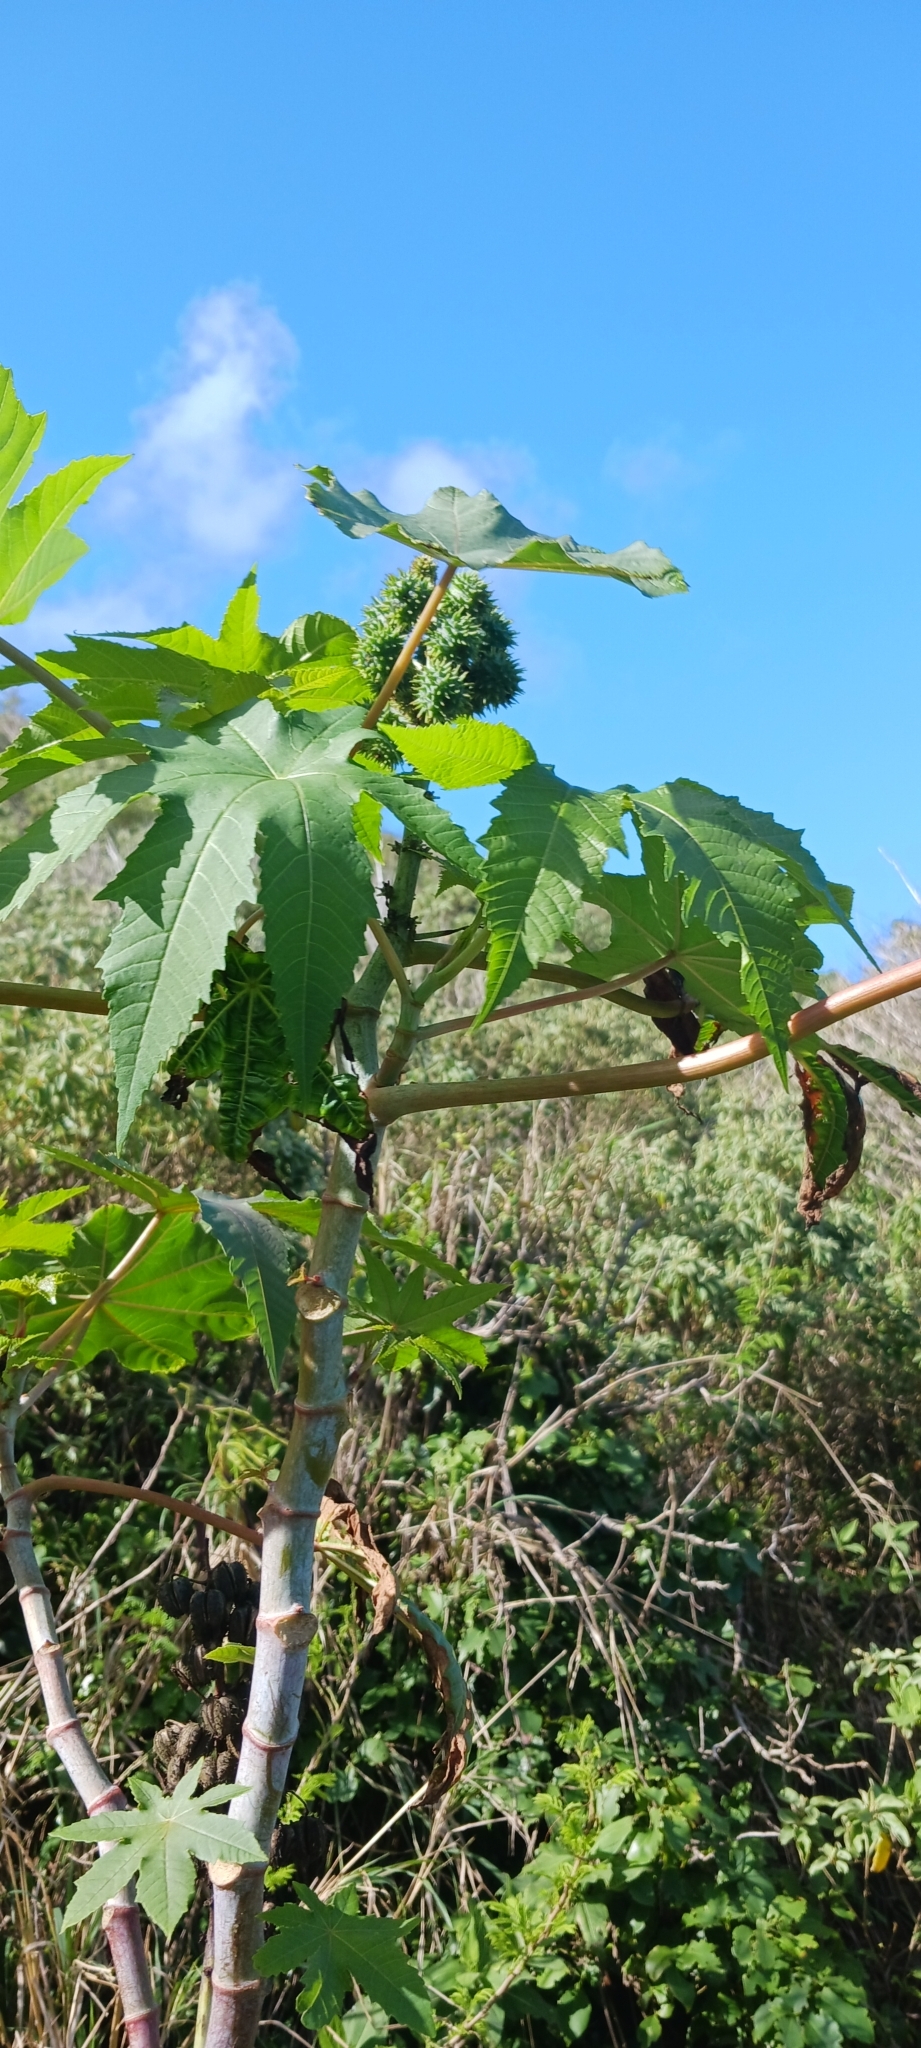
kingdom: Plantae
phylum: Tracheophyta
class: Magnoliopsida
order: Malpighiales
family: Euphorbiaceae
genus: Ricinus
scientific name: Ricinus communis
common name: Castor-oil-plant
